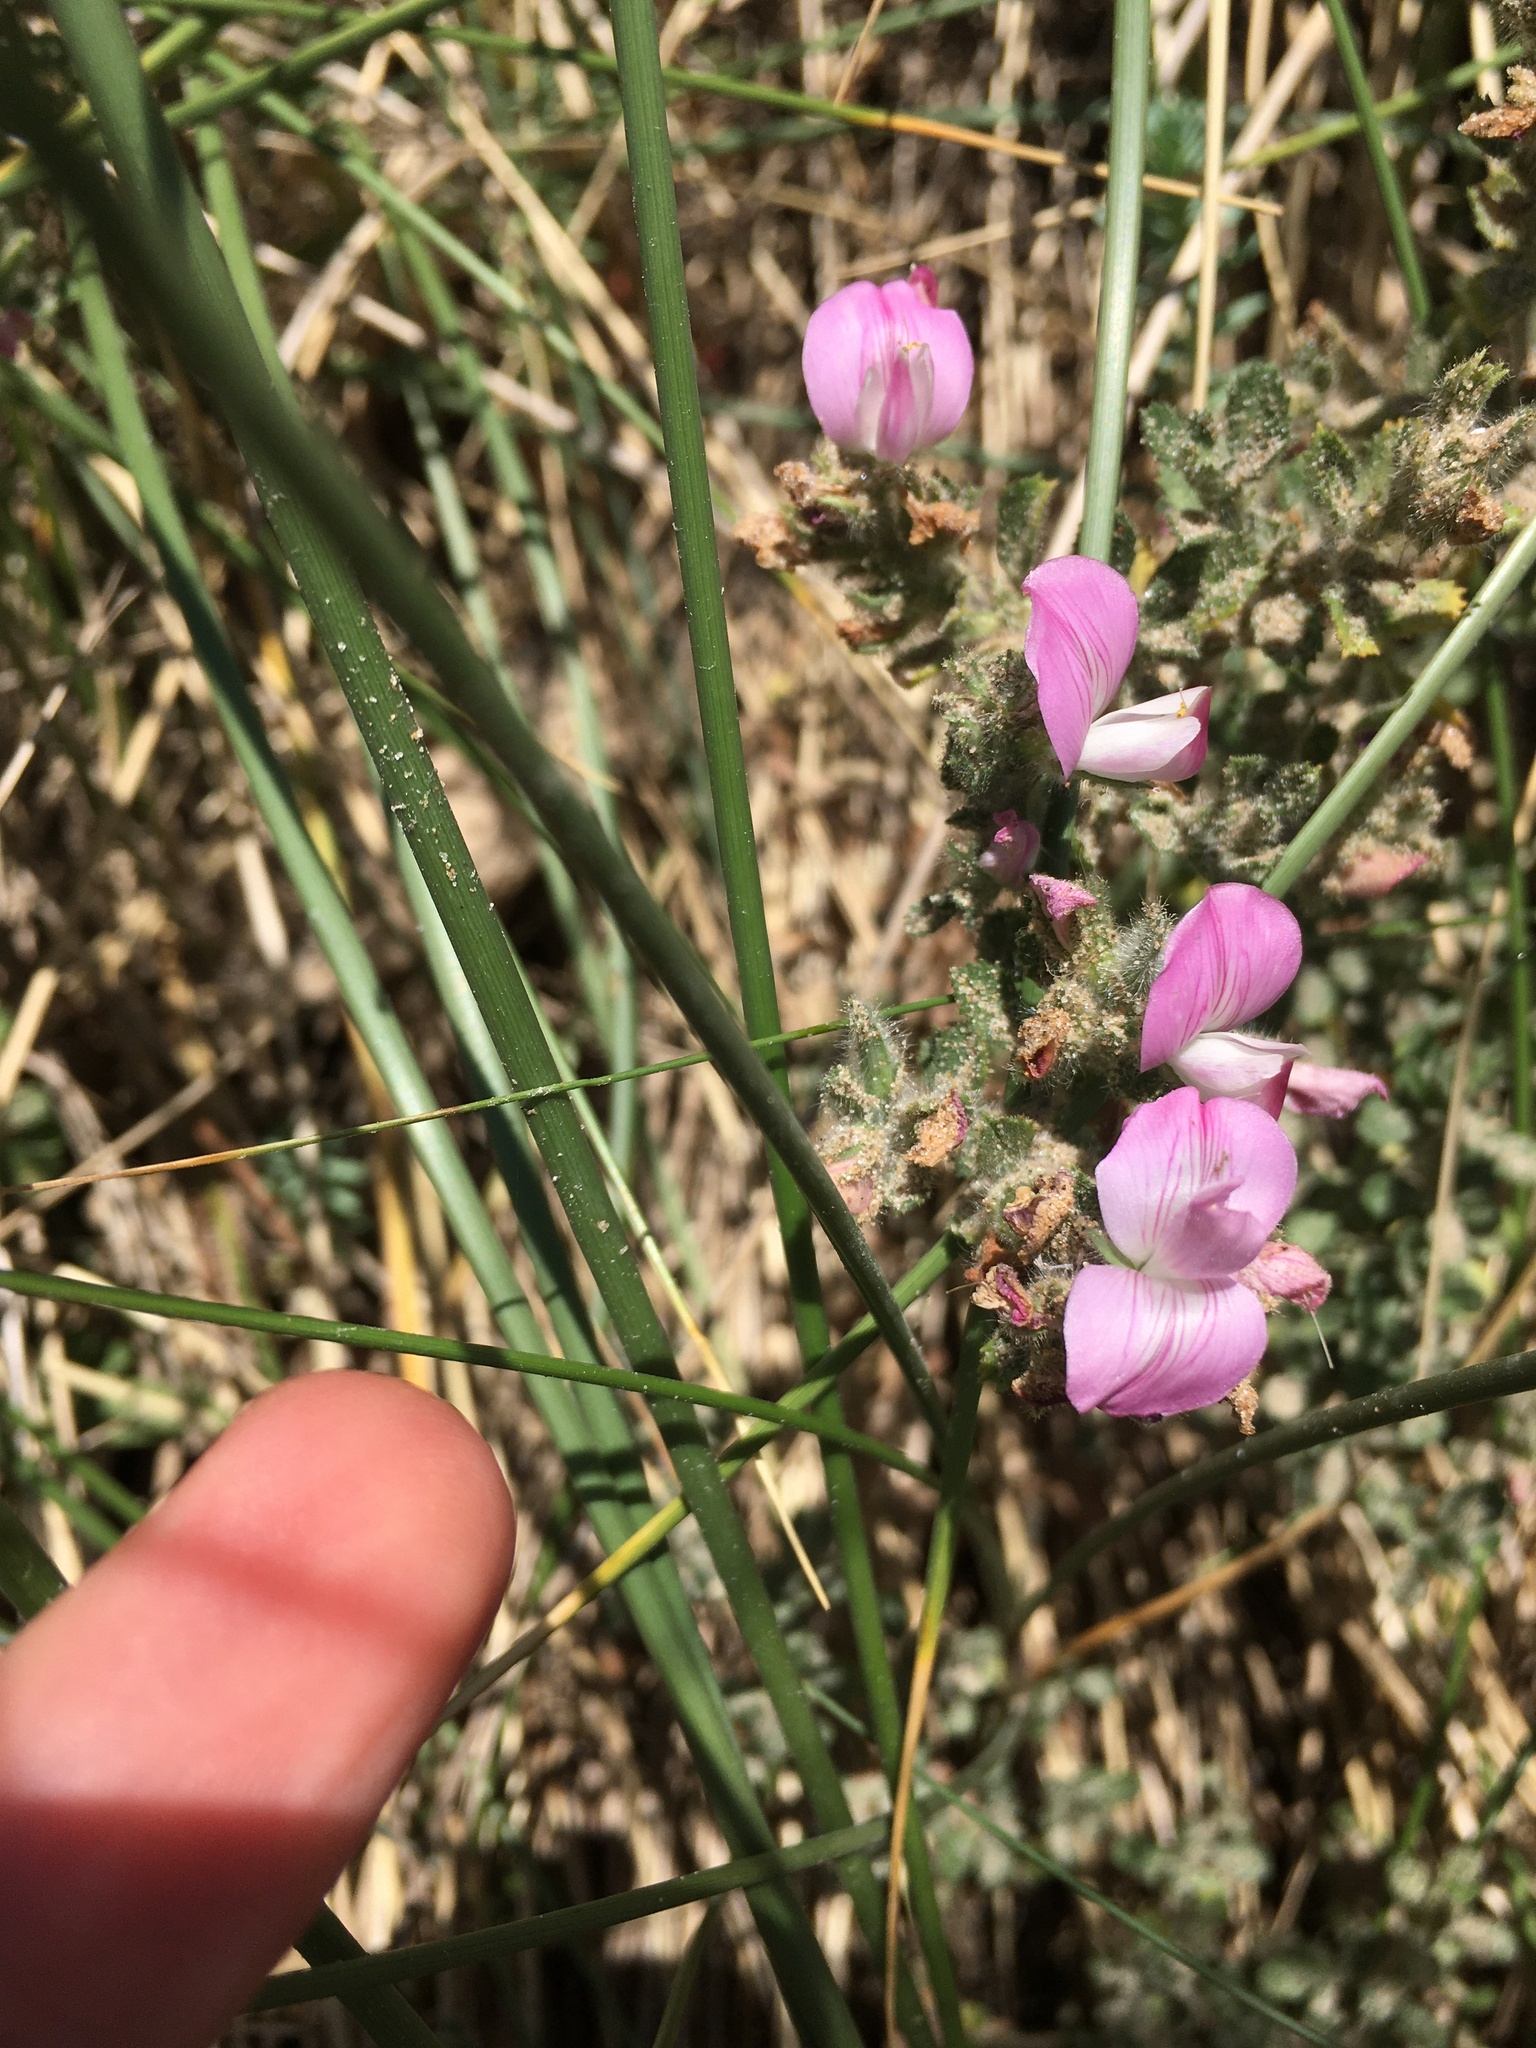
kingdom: Plantae
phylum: Tracheophyta
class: Magnoliopsida
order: Fabales
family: Fabaceae
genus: Ononis
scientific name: Ononis spinosa
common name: Spiny restharrow
